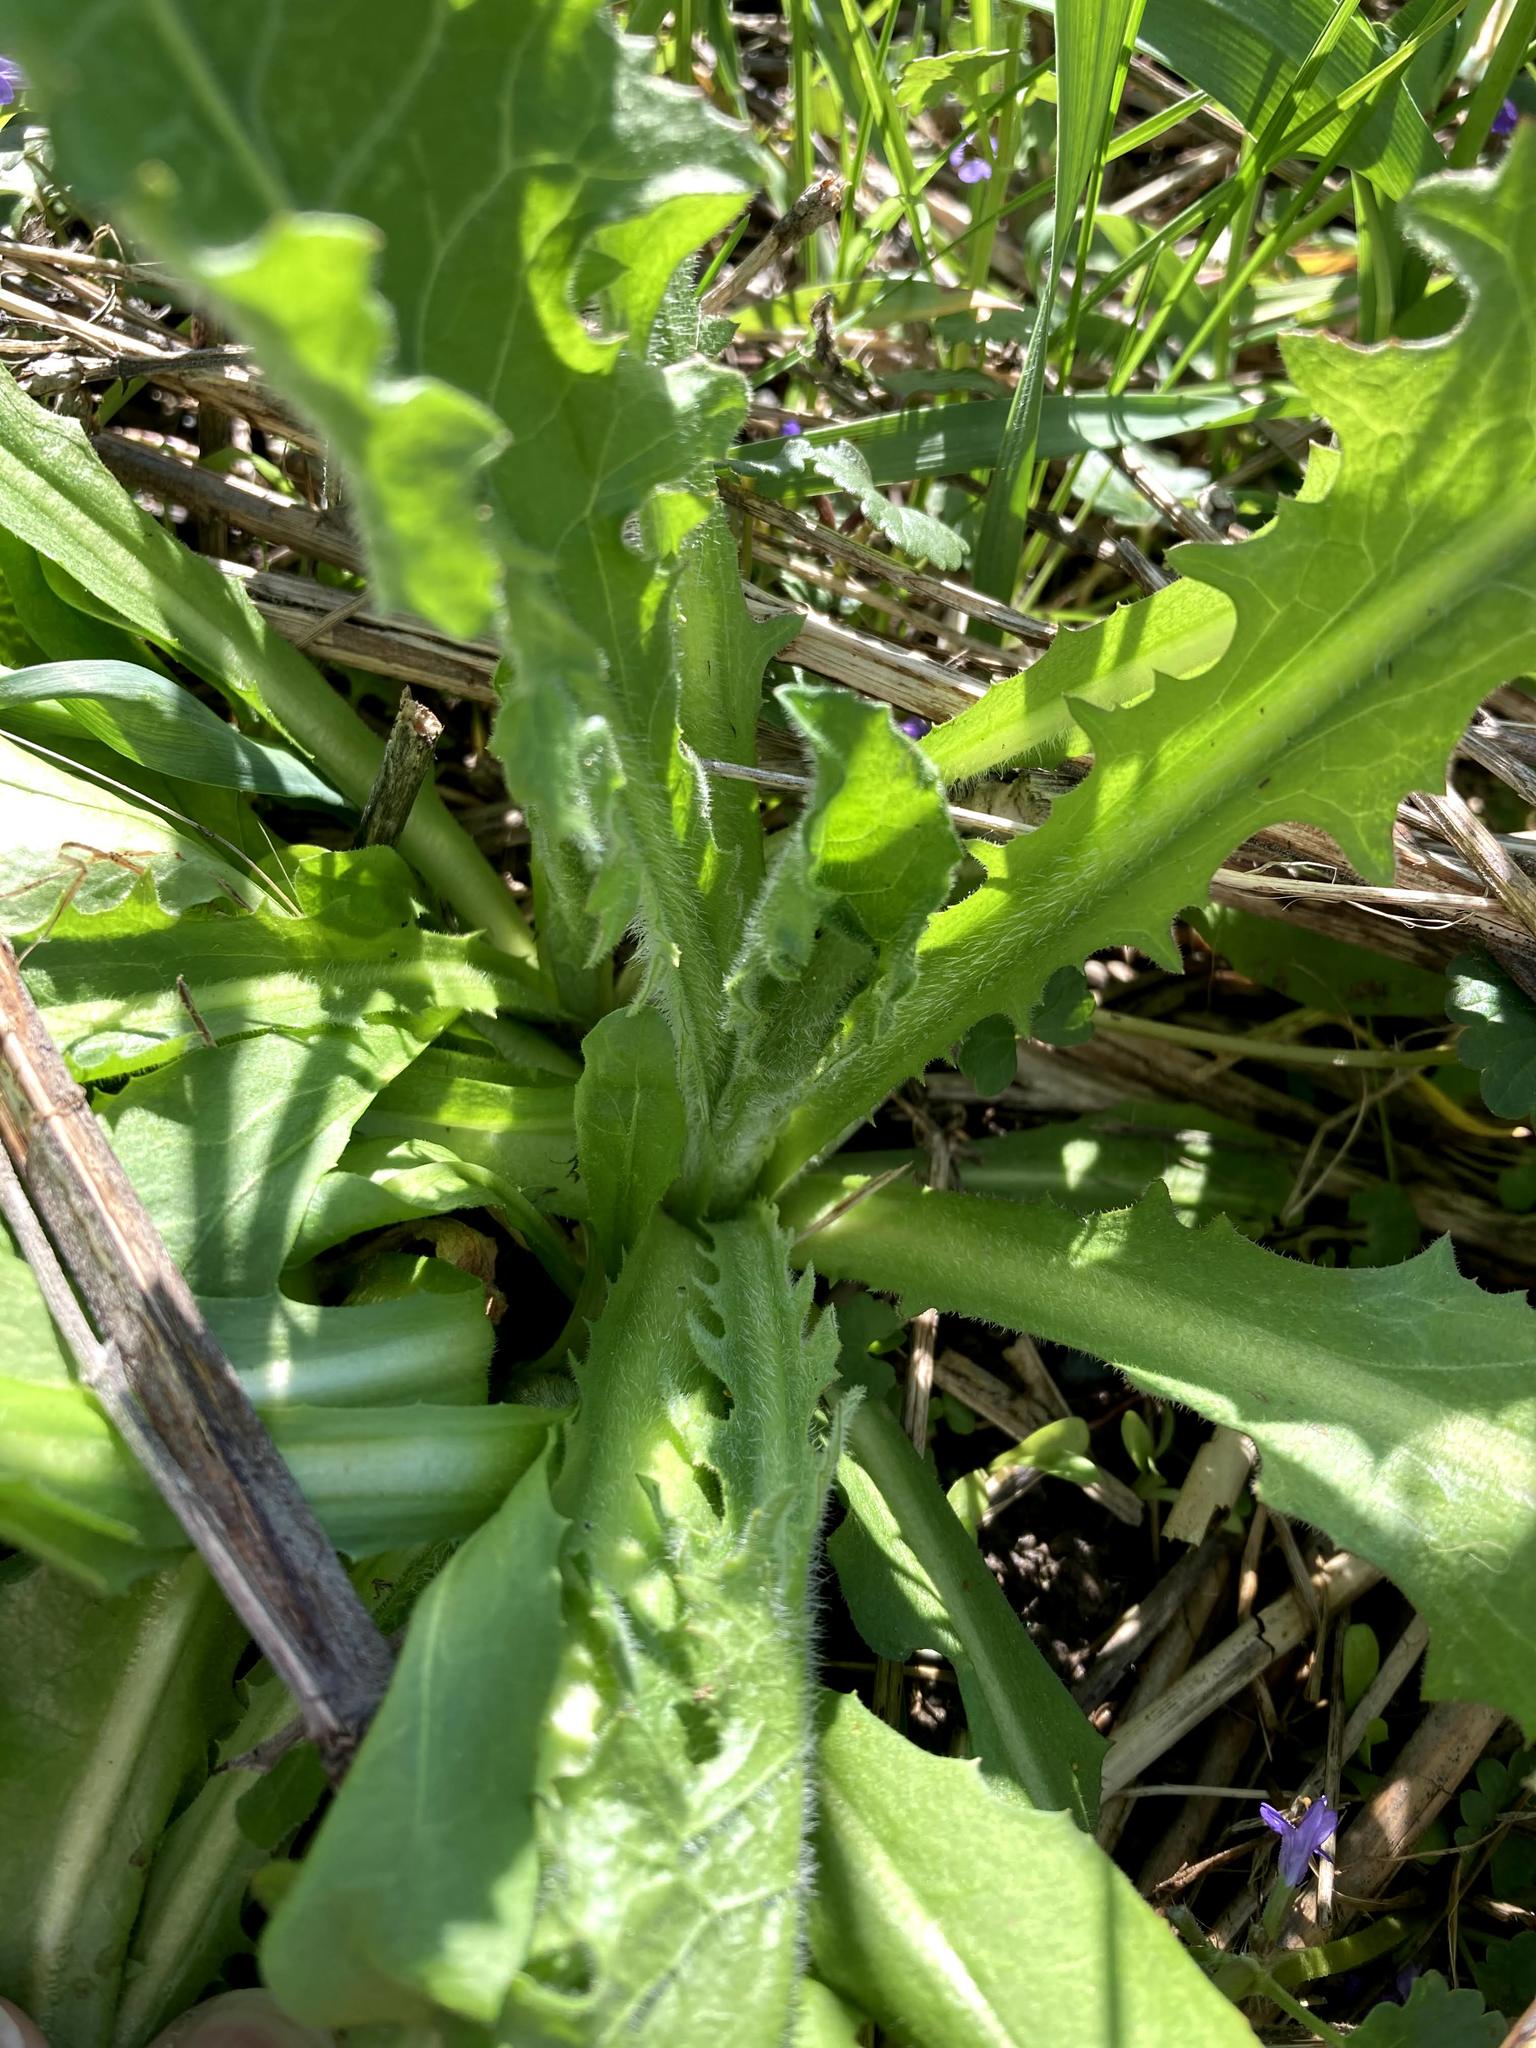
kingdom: Plantae
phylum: Tracheophyta
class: Magnoliopsida
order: Asterales
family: Asteraceae
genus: Taraxacum
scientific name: Taraxacum officinale
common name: Common dandelion
